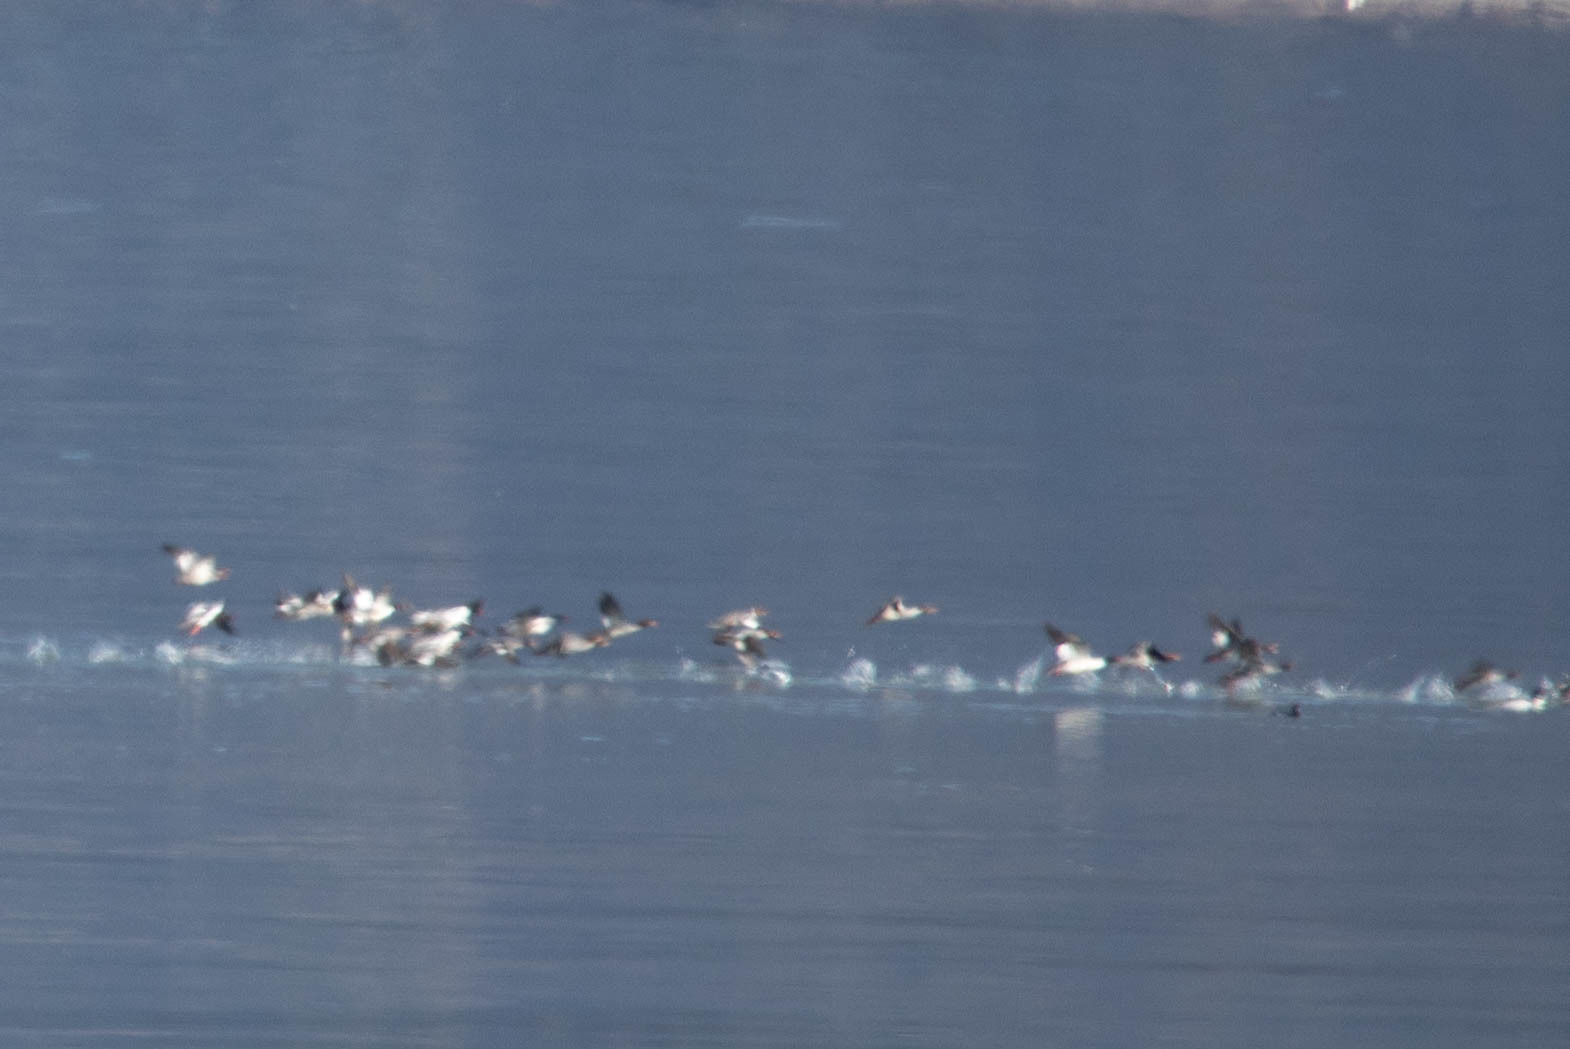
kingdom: Animalia
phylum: Chordata
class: Aves
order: Anseriformes
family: Anatidae
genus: Mergus
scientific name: Mergus merganser
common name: Common merganser
